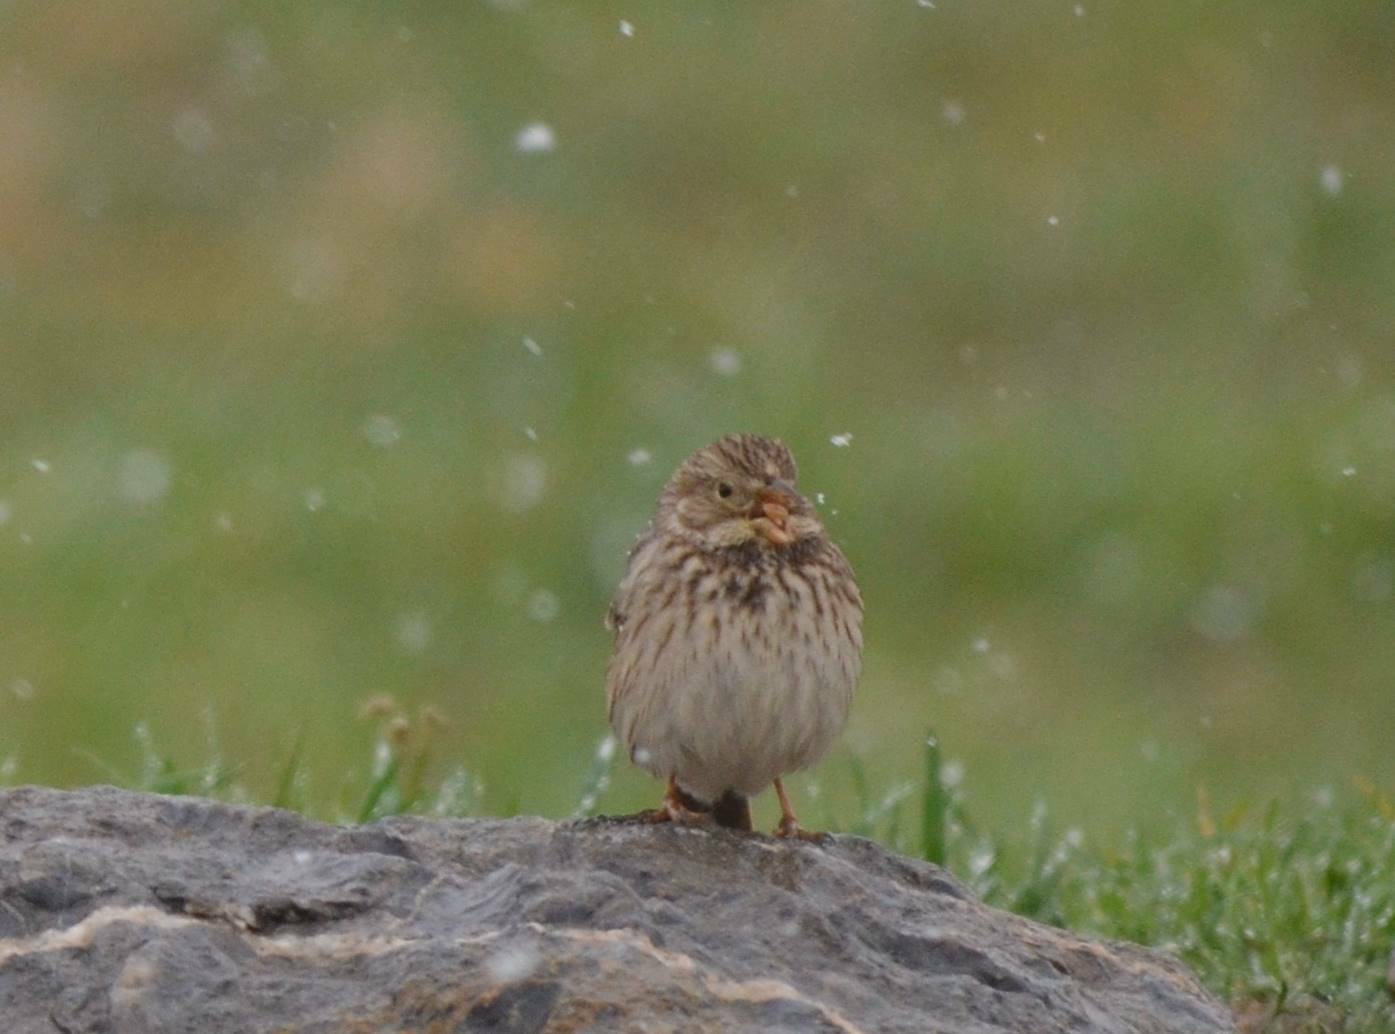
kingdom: Animalia
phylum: Chordata
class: Aves
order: Passeriformes
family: Emberizidae
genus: Emberiza
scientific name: Emberiza calandra
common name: Corn bunting
